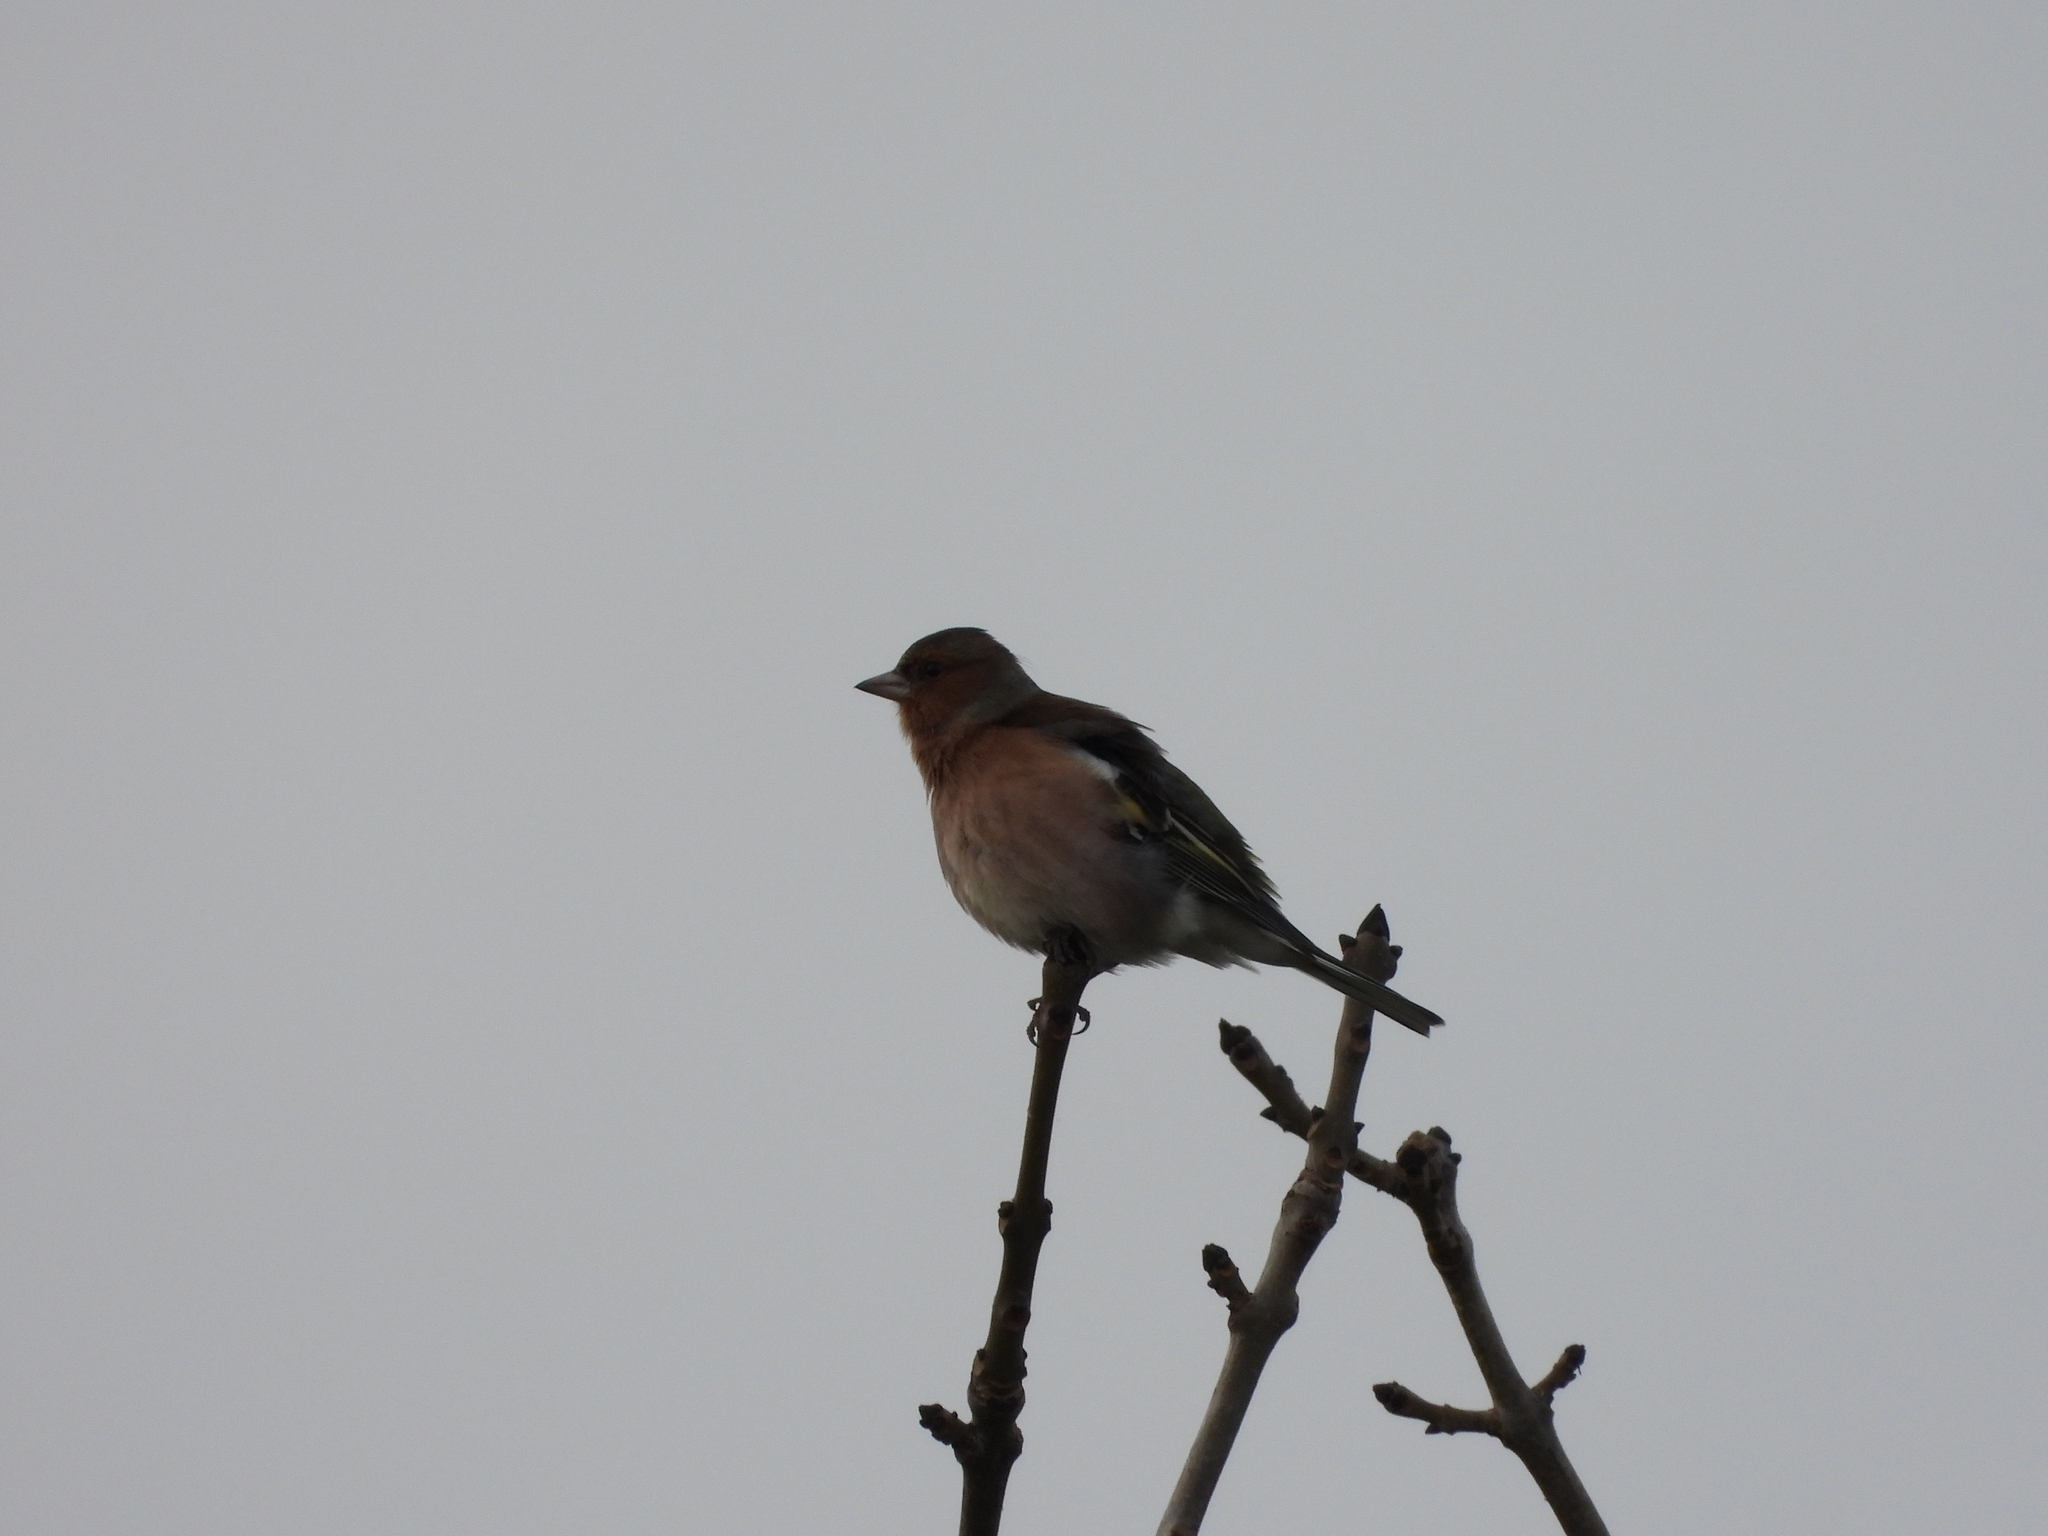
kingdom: Animalia
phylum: Chordata
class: Aves
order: Passeriformes
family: Fringillidae
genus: Fringilla
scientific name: Fringilla coelebs
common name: Common chaffinch
